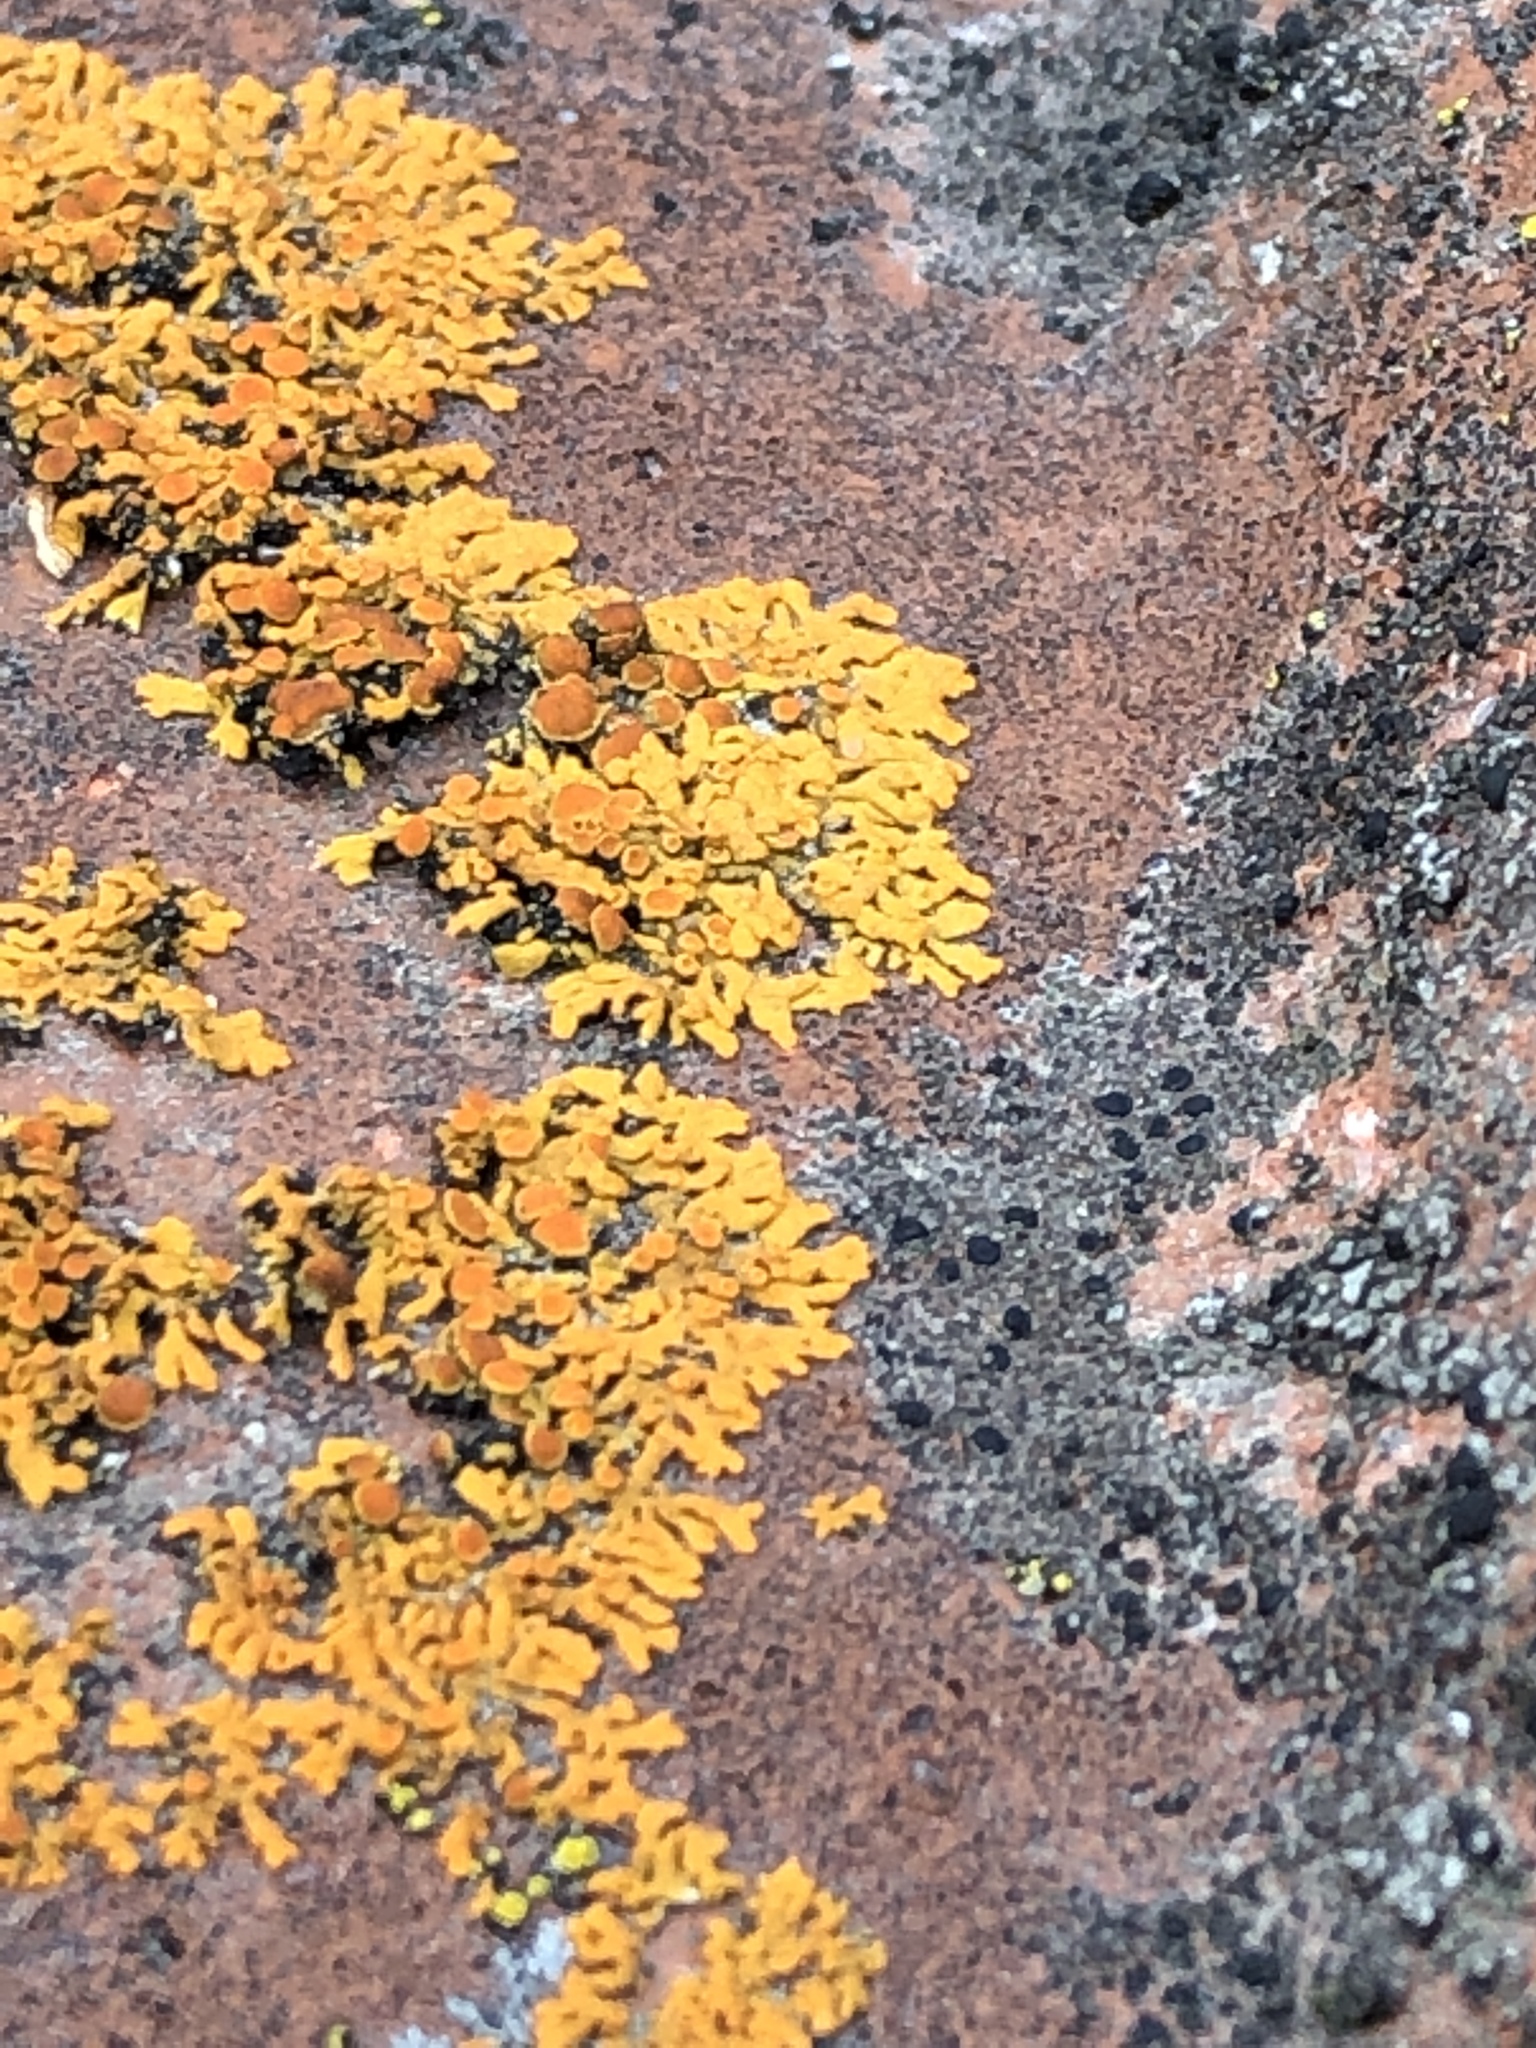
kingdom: Fungi
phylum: Ascomycota
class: Lecanoromycetes
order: Teloschistales
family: Teloschistaceae
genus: Xanthoria
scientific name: Xanthoria elegans
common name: Elegant sunburst lichen
